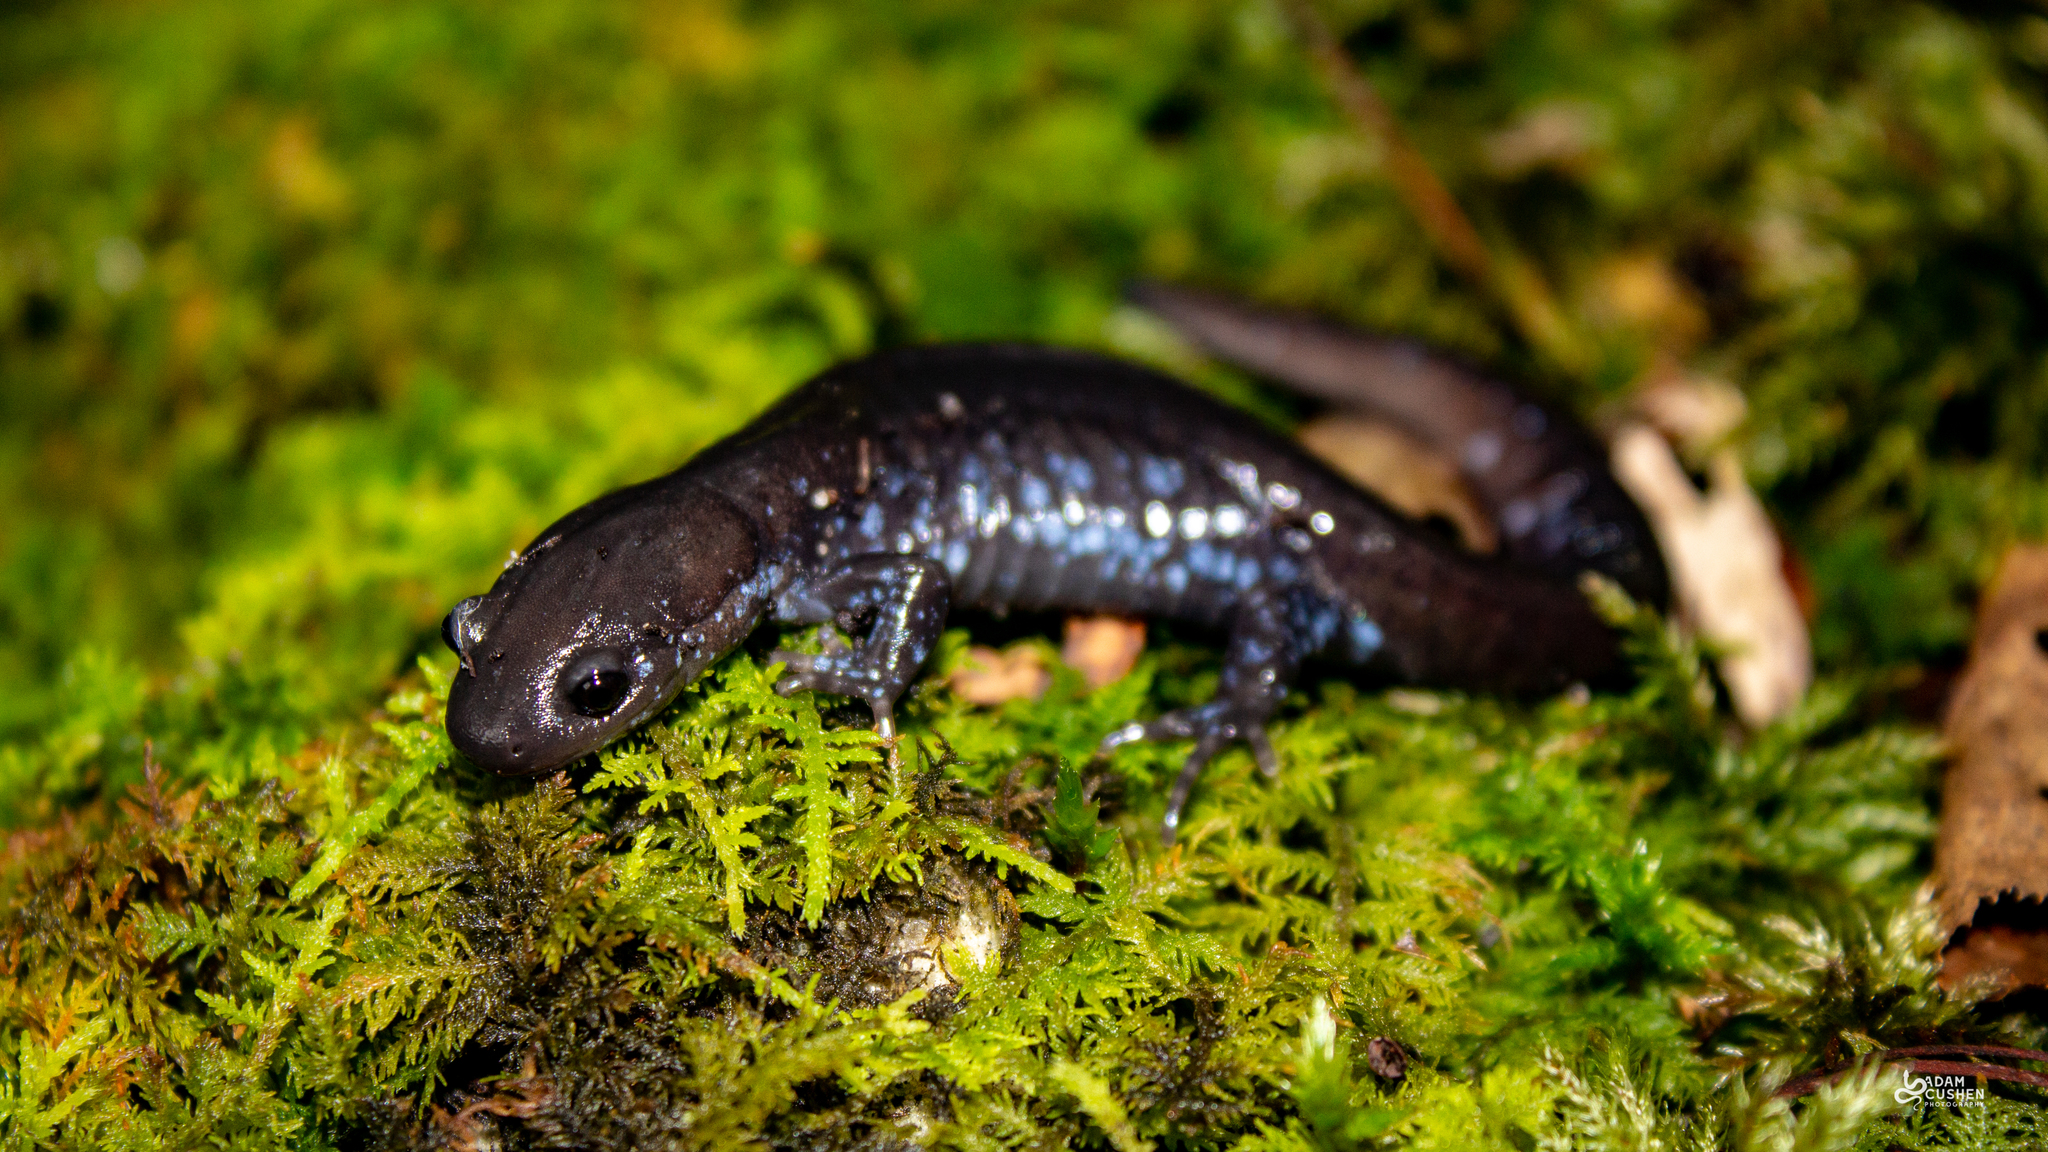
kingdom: Animalia
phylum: Chordata
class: Amphibia
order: Caudata
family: Ambystomatidae
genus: Ambystoma
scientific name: Ambystoma laterale
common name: Blue-spotted salamander
